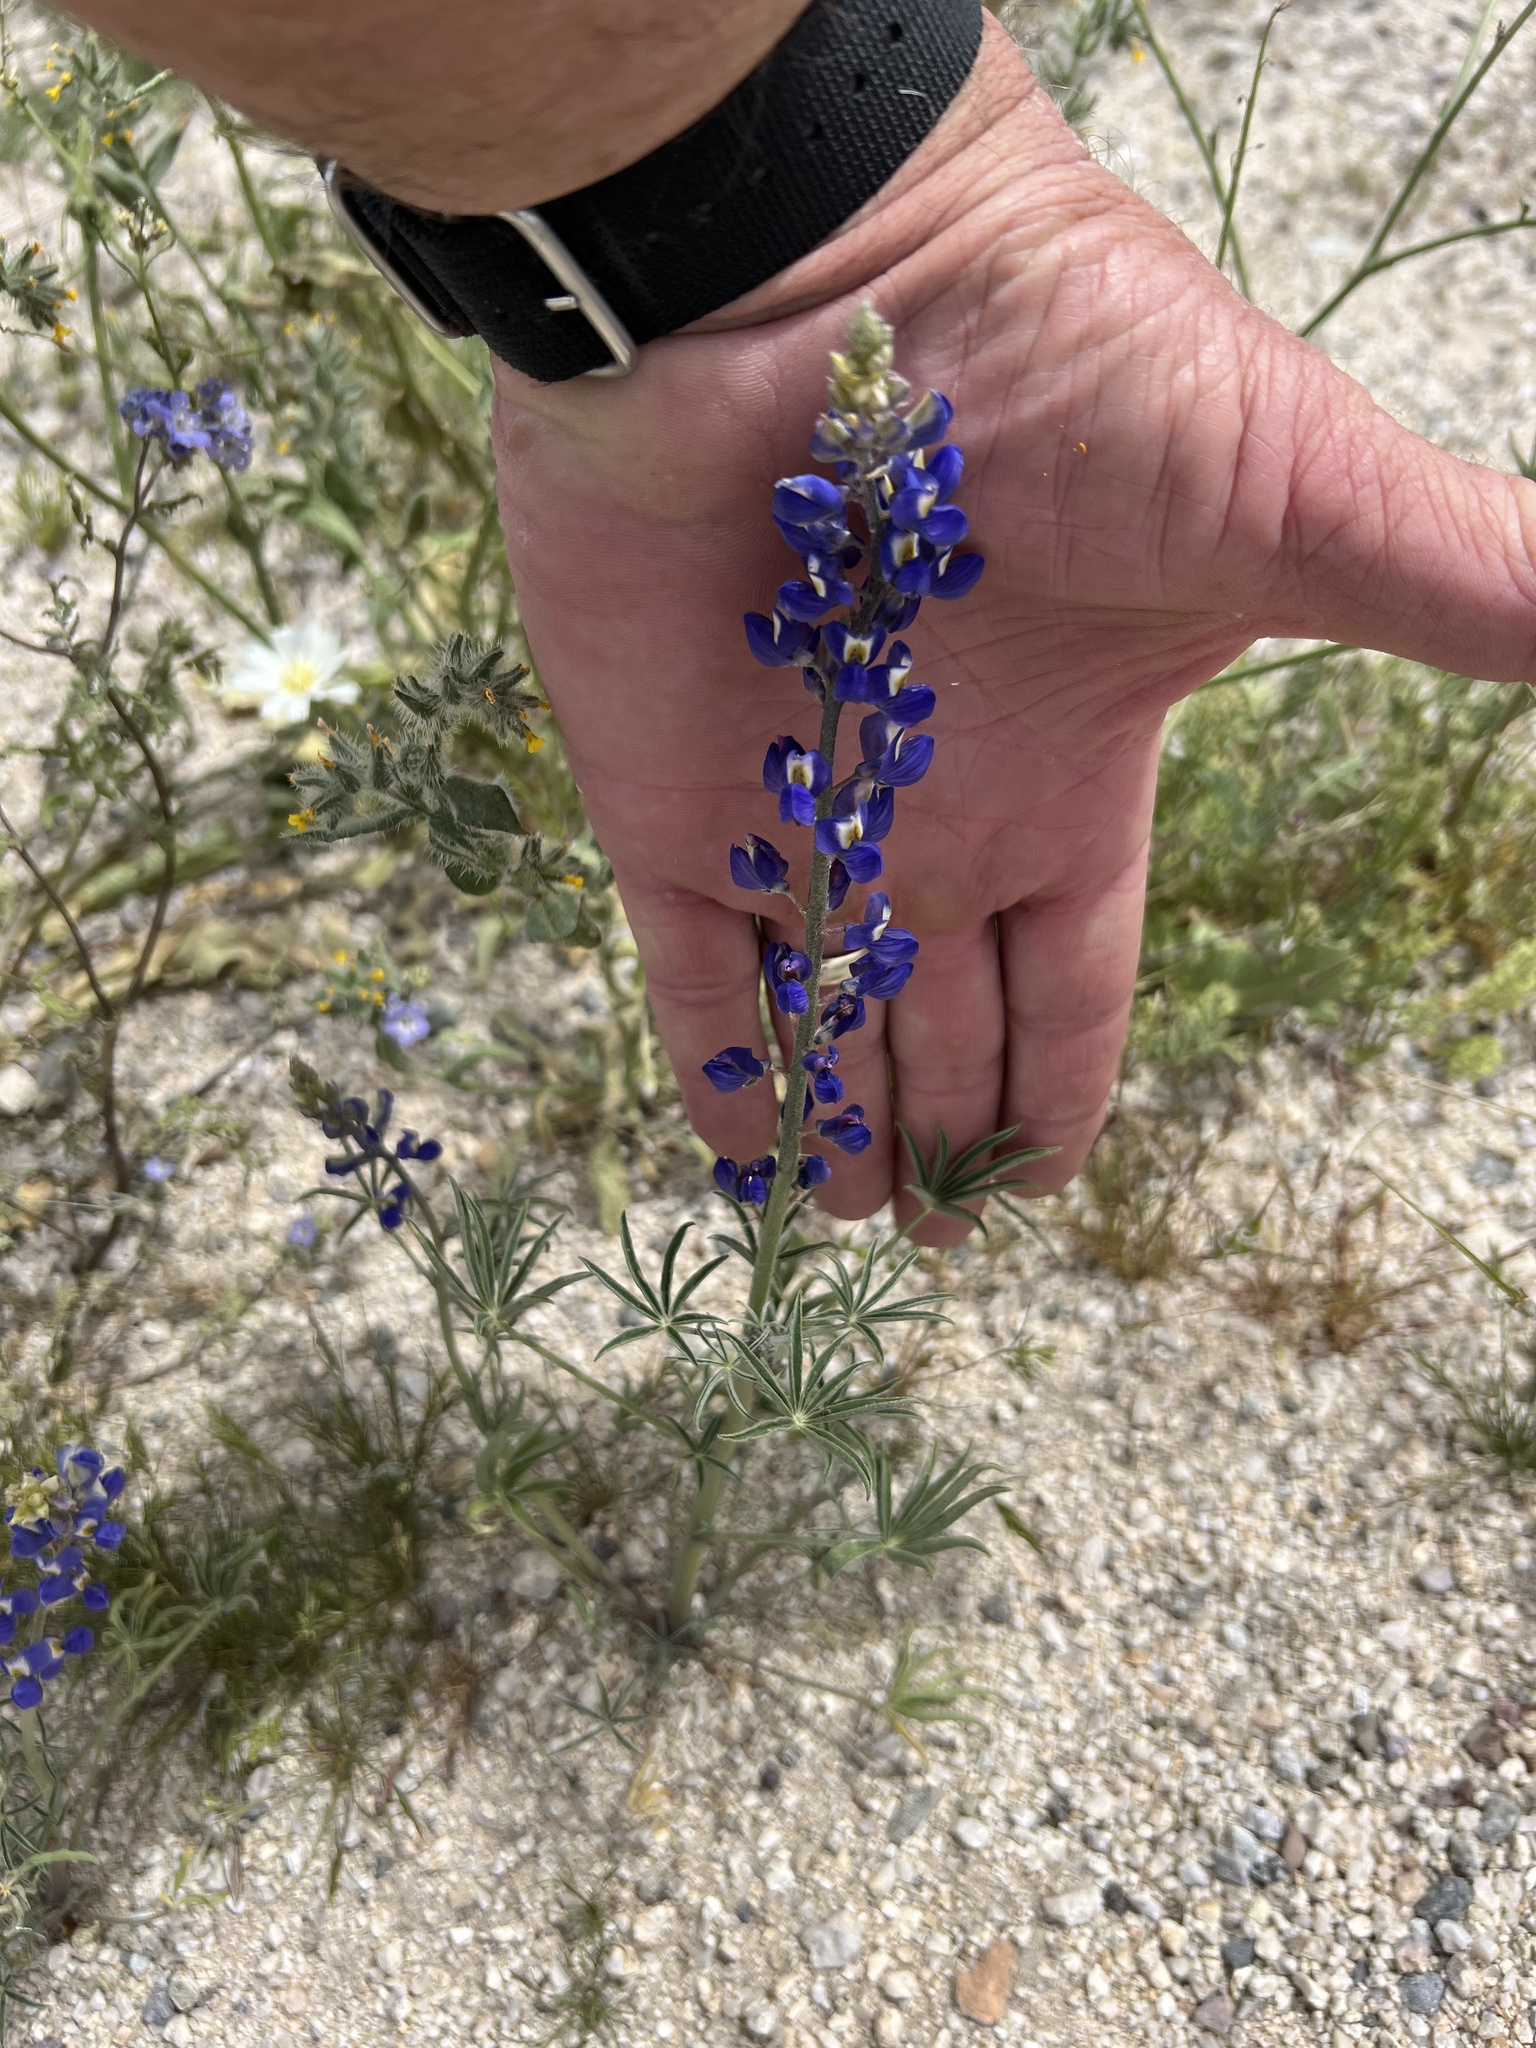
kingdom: Plantae
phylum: Tracheophyta
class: Magnoliopsida
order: Fabales
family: Fabaceae
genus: Lupinus
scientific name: Lupinus arizonicus
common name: Arizona lupine
